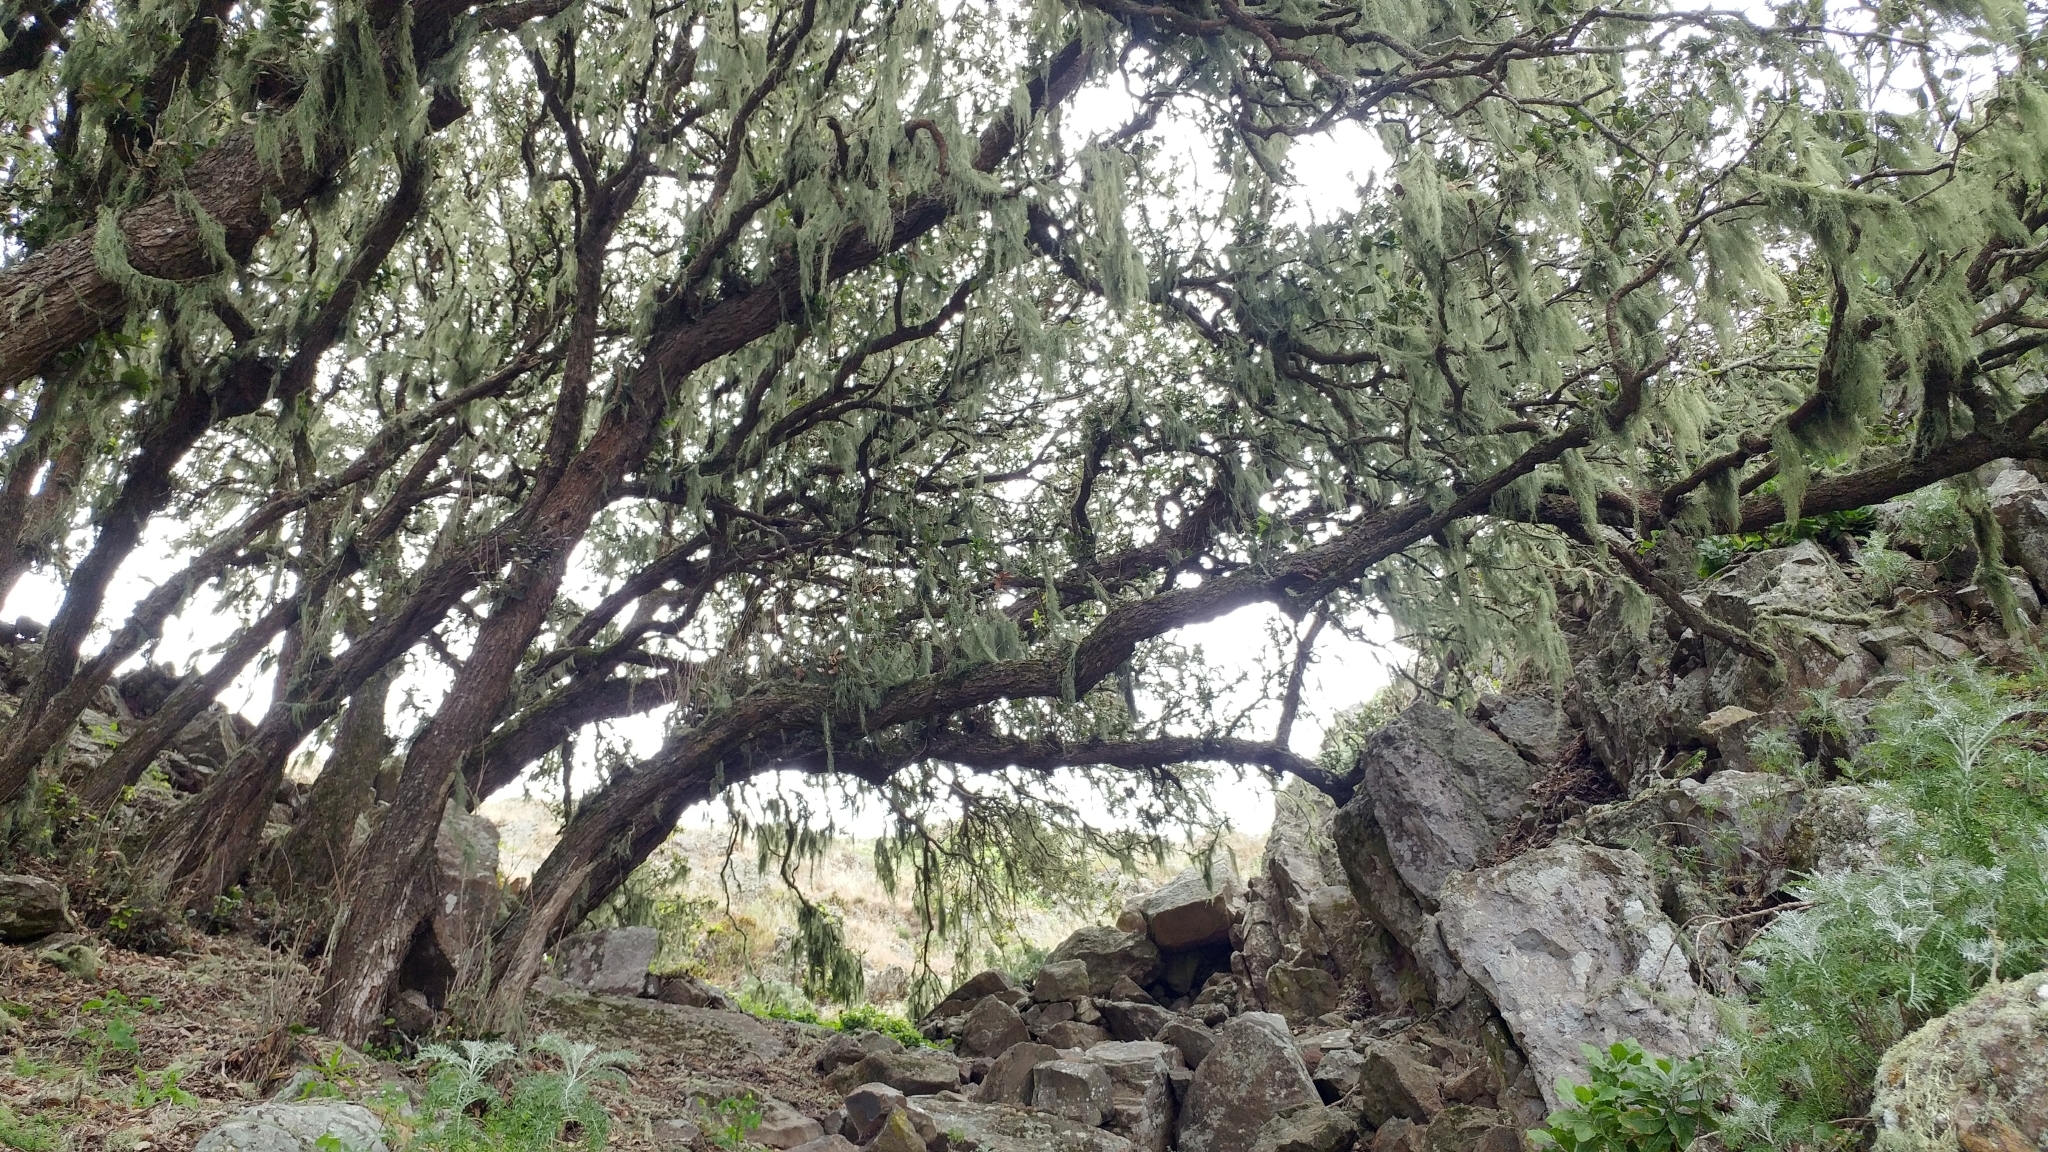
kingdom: Fungi
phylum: Ascomycota
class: Lecanoromycetes
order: Lecanorales
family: Ramalinaceae
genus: Ramalina
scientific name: Ramalina menziesii
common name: Lace lichen
